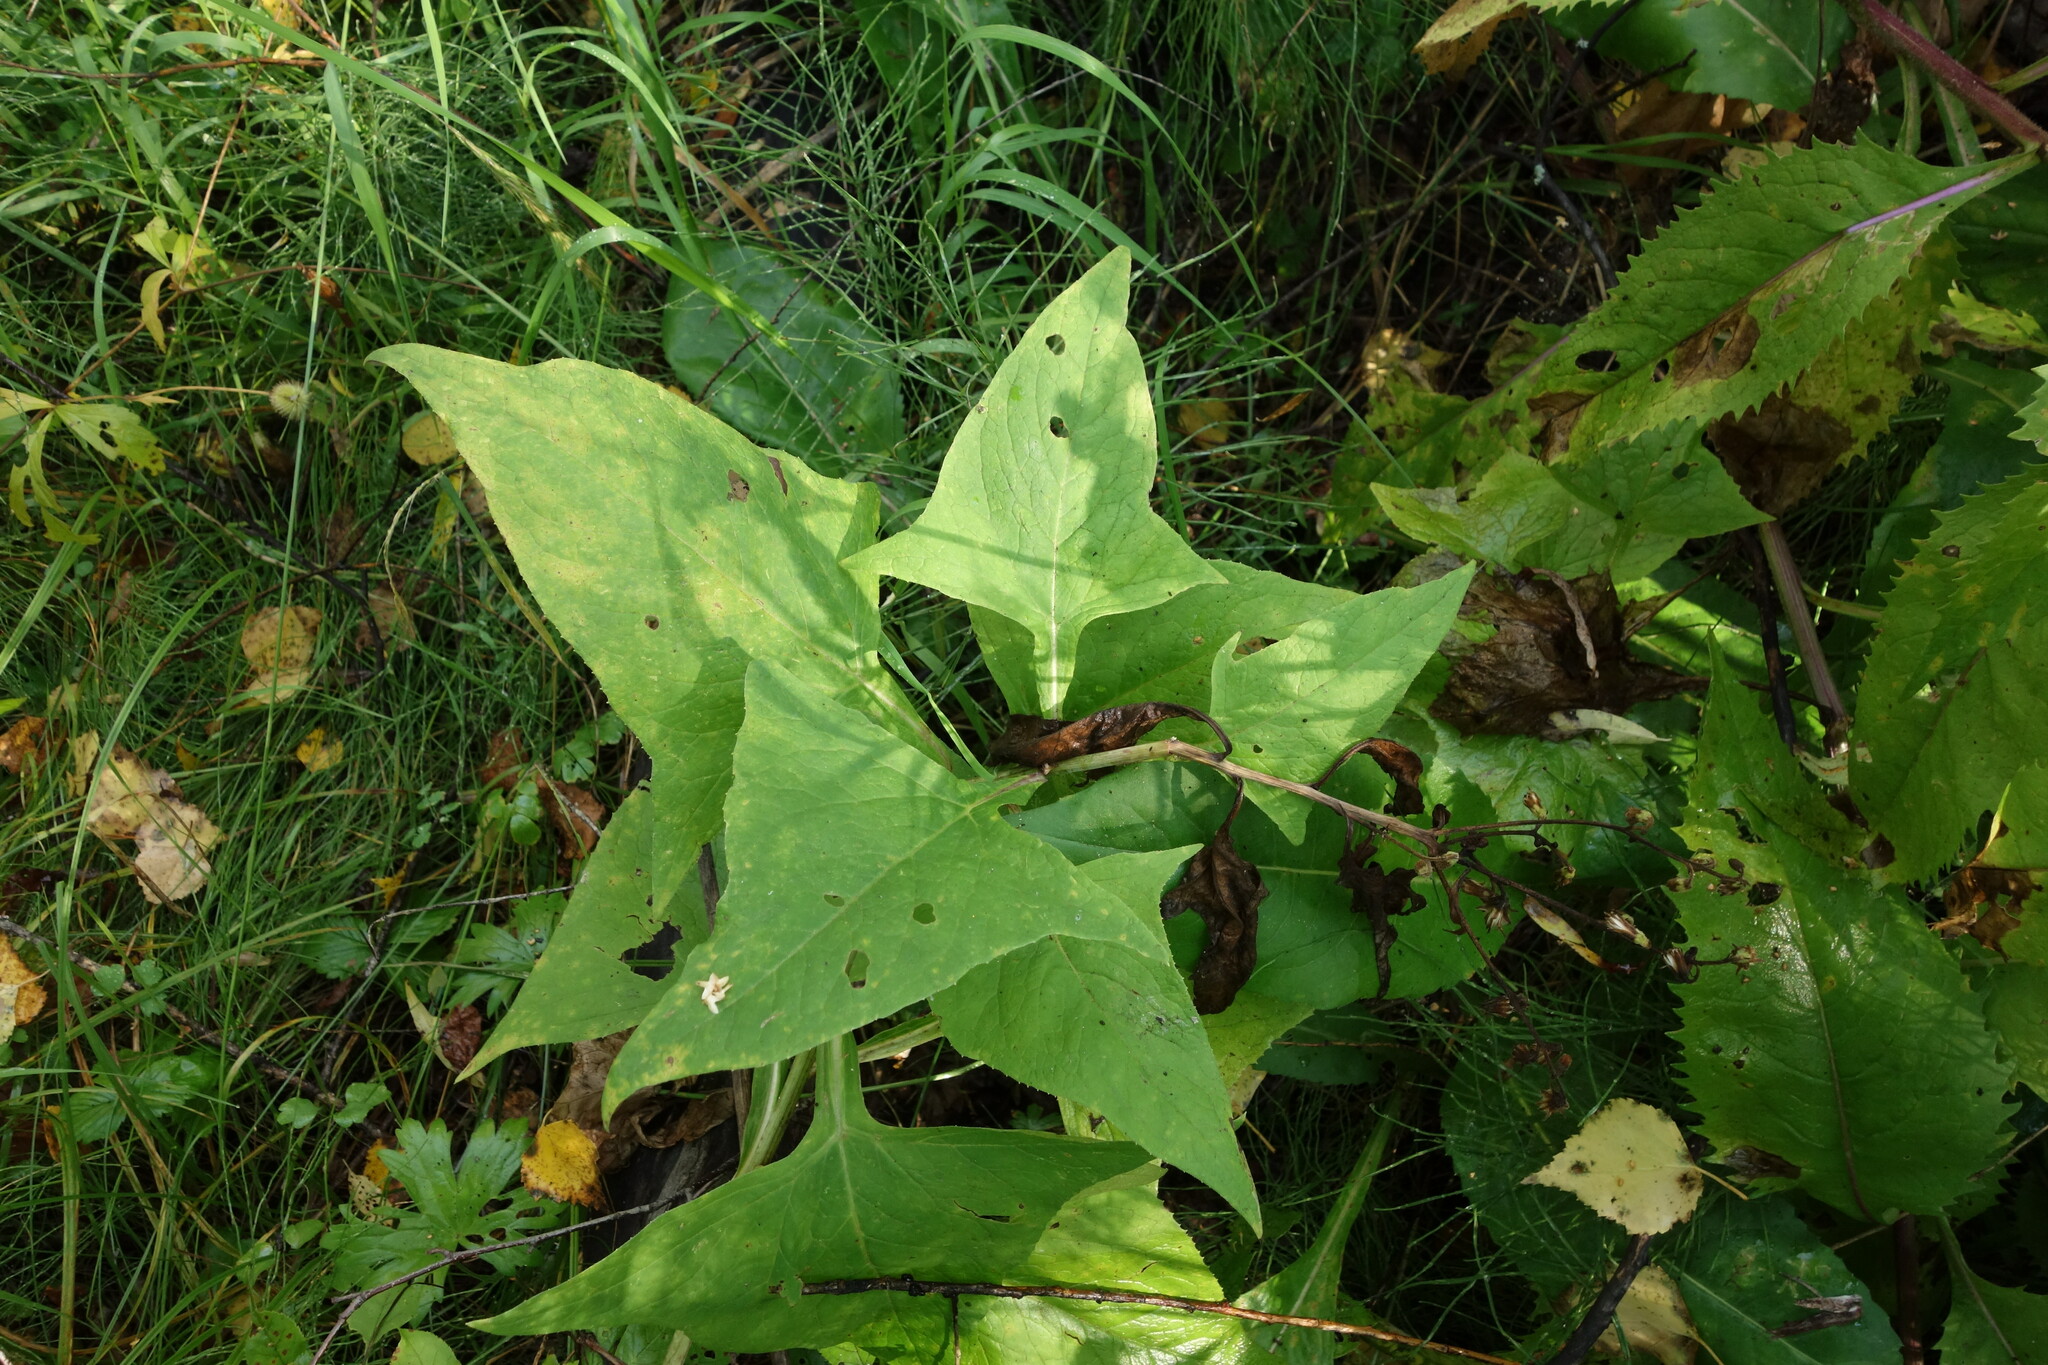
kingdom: Plantae
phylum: Tracheophyta
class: Magnoliopsida
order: Asterales
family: Asteraceae
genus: Parasenecio
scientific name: Parasenecio hastatus
